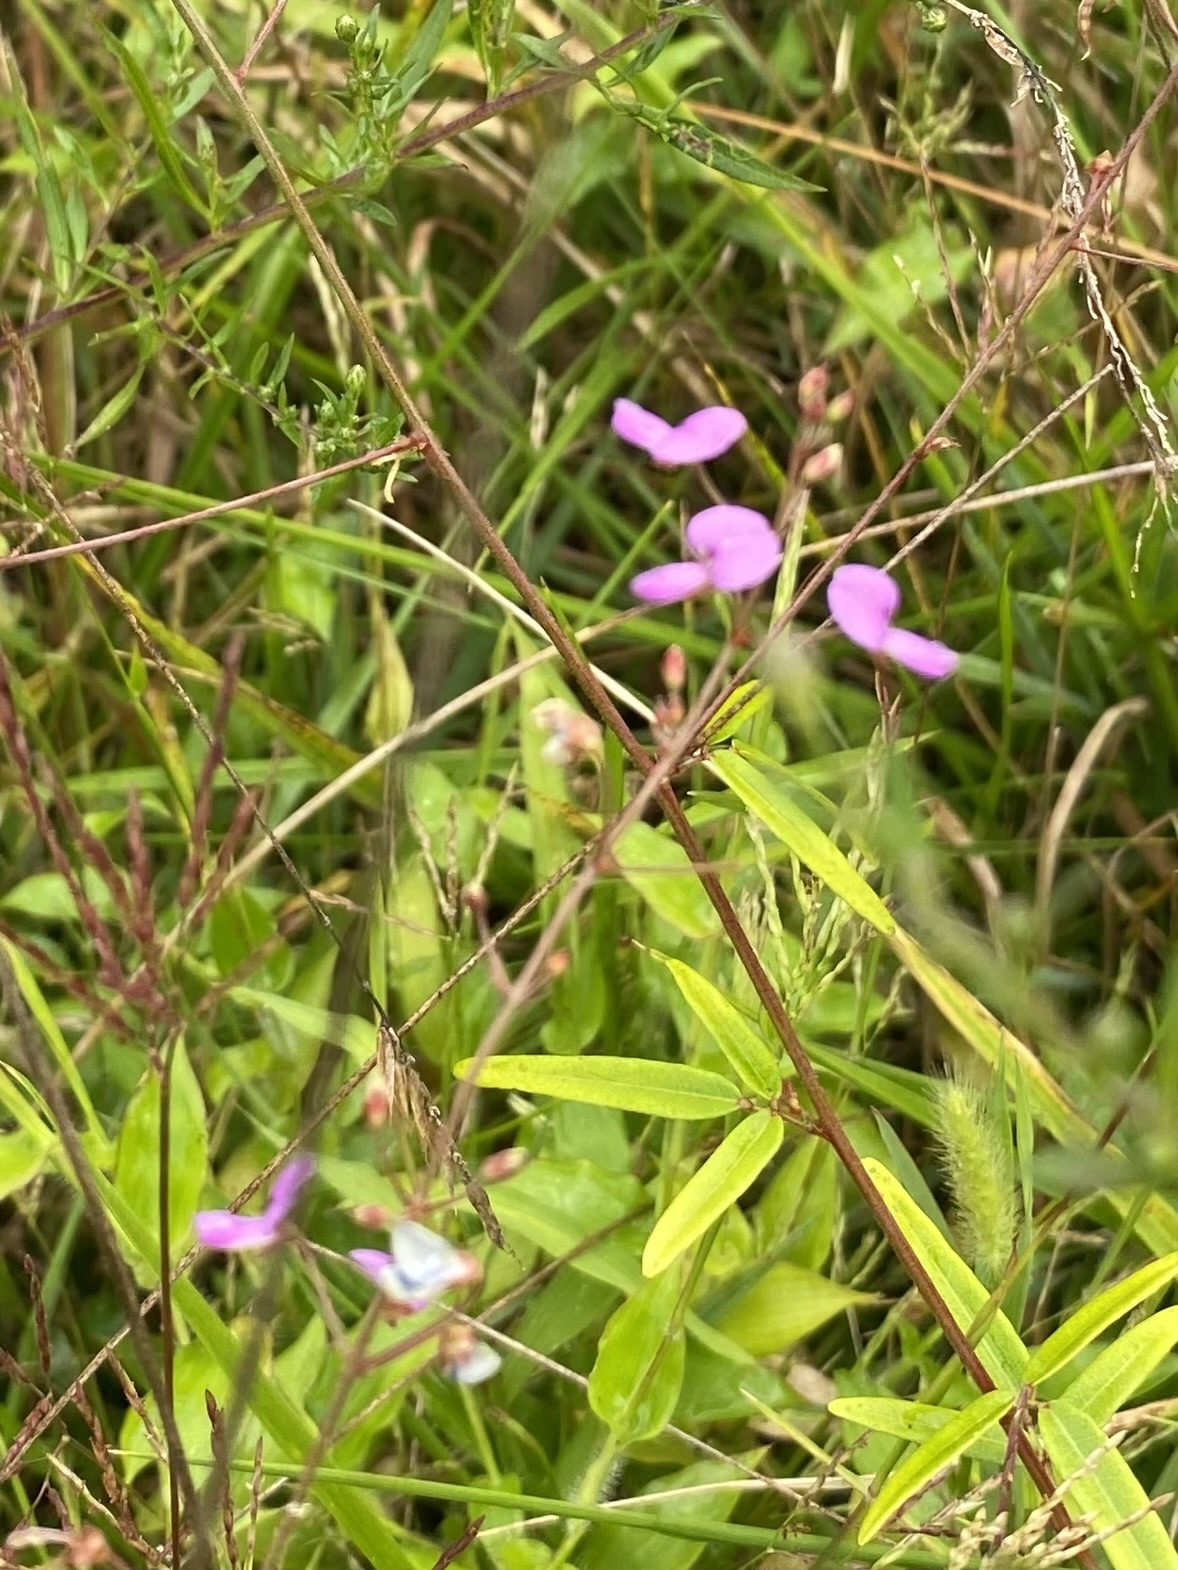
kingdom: Plantae
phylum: Tracheophyta
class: Magnoliopsida
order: Fabales
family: Fabaceae
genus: Desmodium
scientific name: Desmodium paniculatum
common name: Panicled tick-clover
